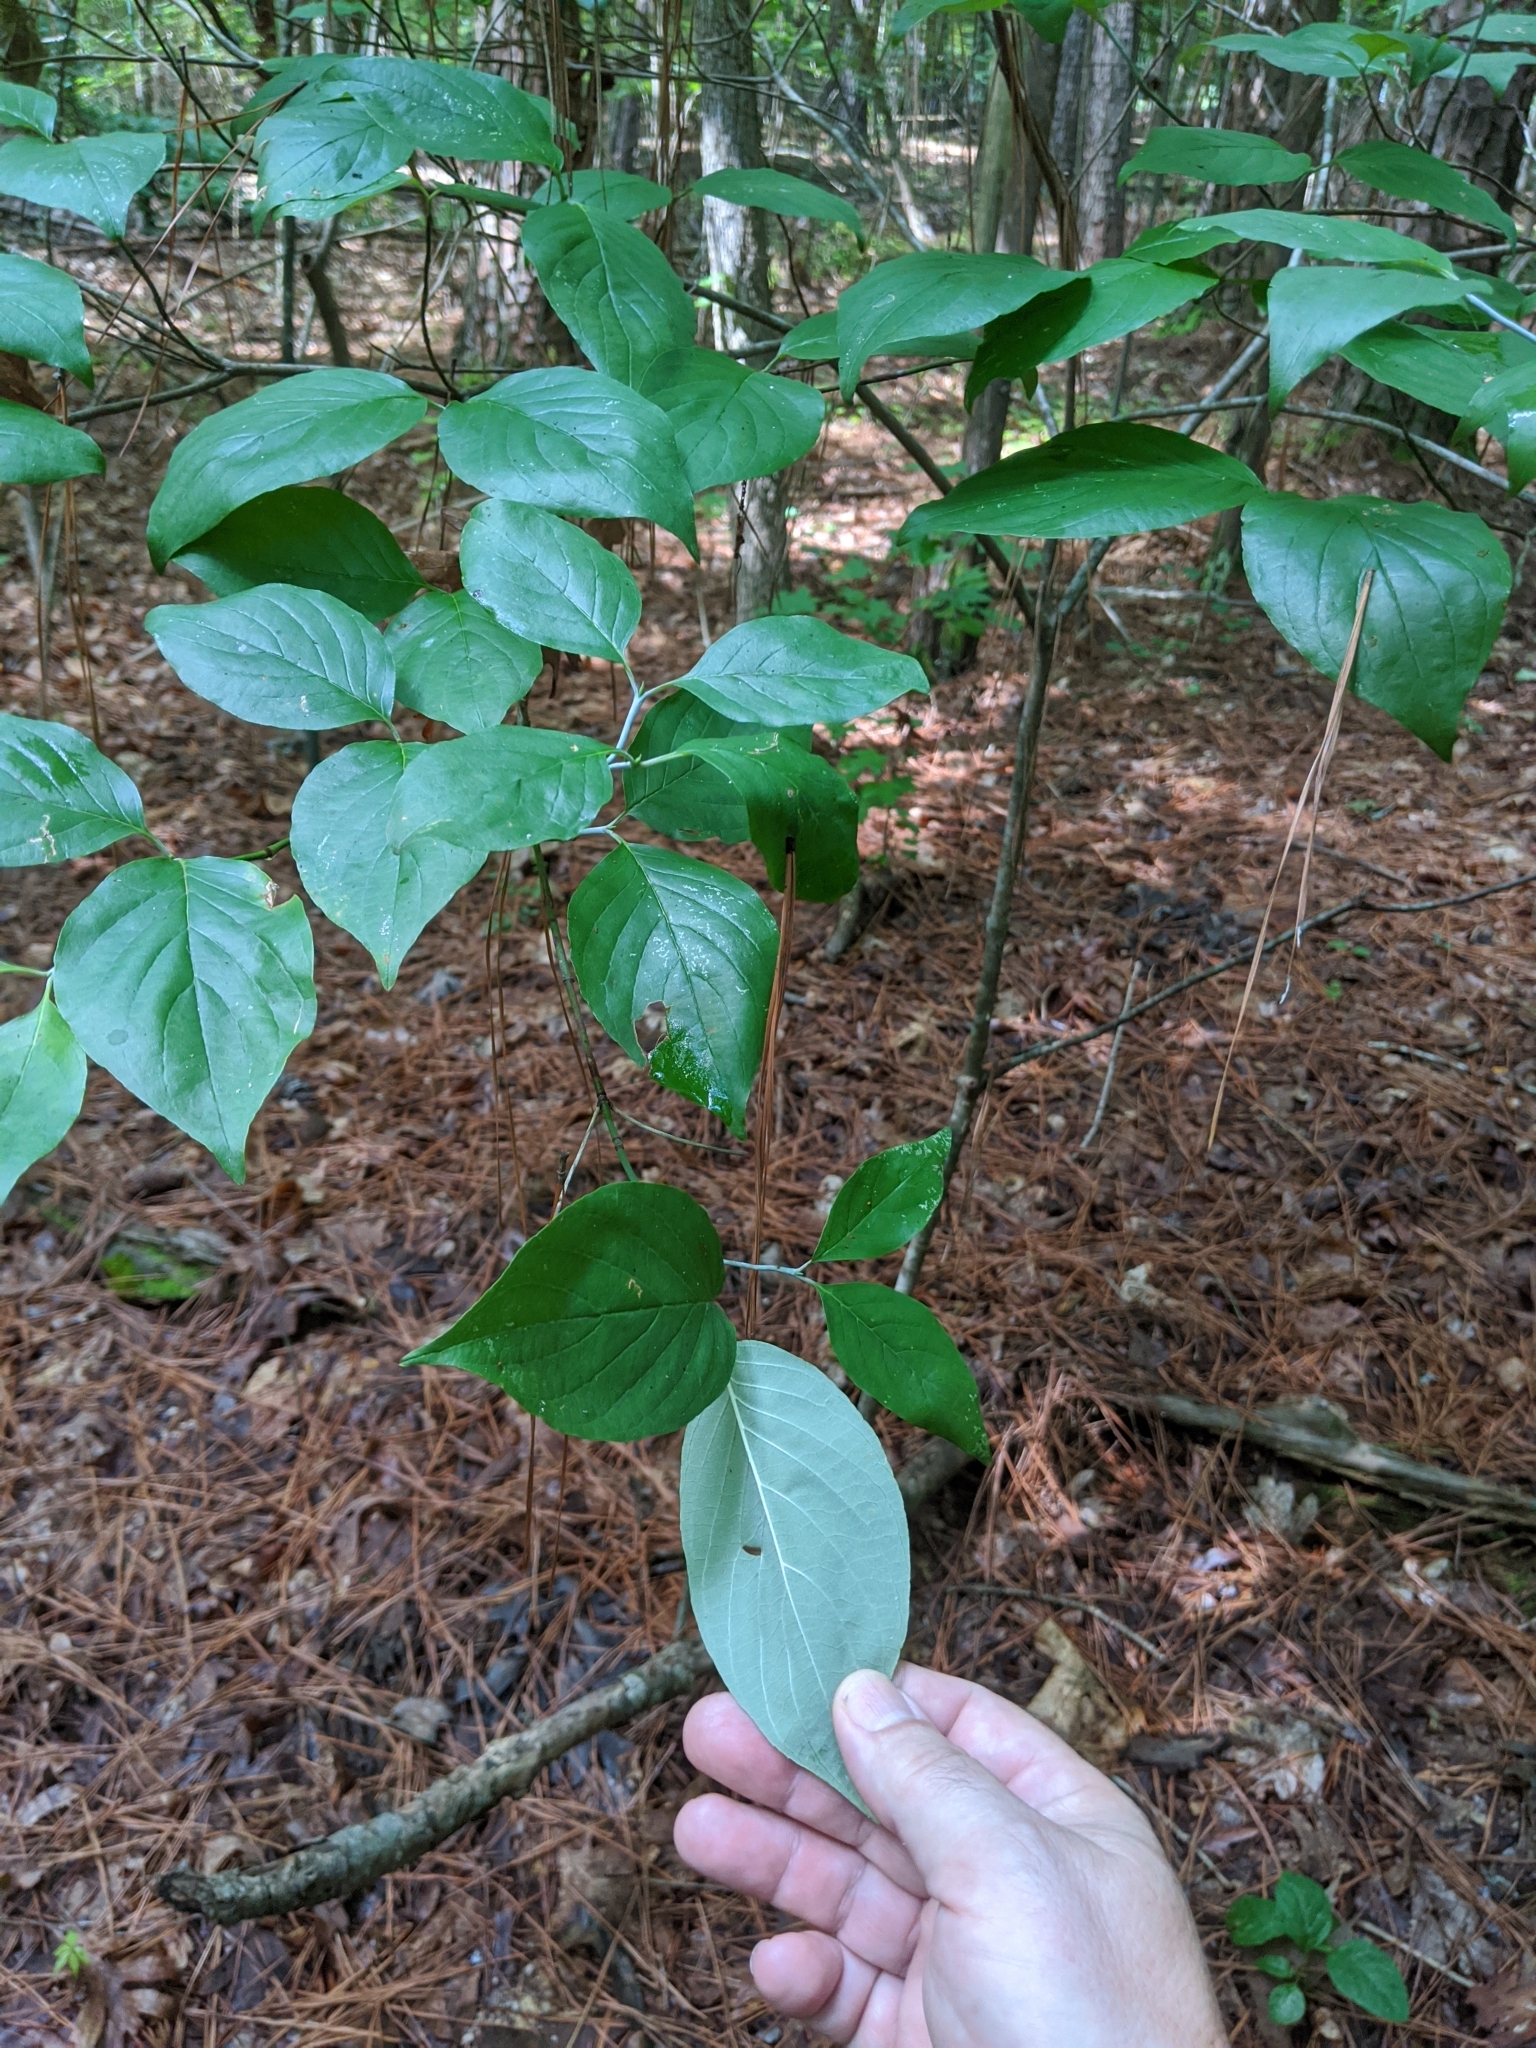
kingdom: Plantae
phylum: Tracheophyta
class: Magnoliopsida
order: Cornales
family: Cornaceae
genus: Cornus
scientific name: Cornus florida
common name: Flowering dogwood
